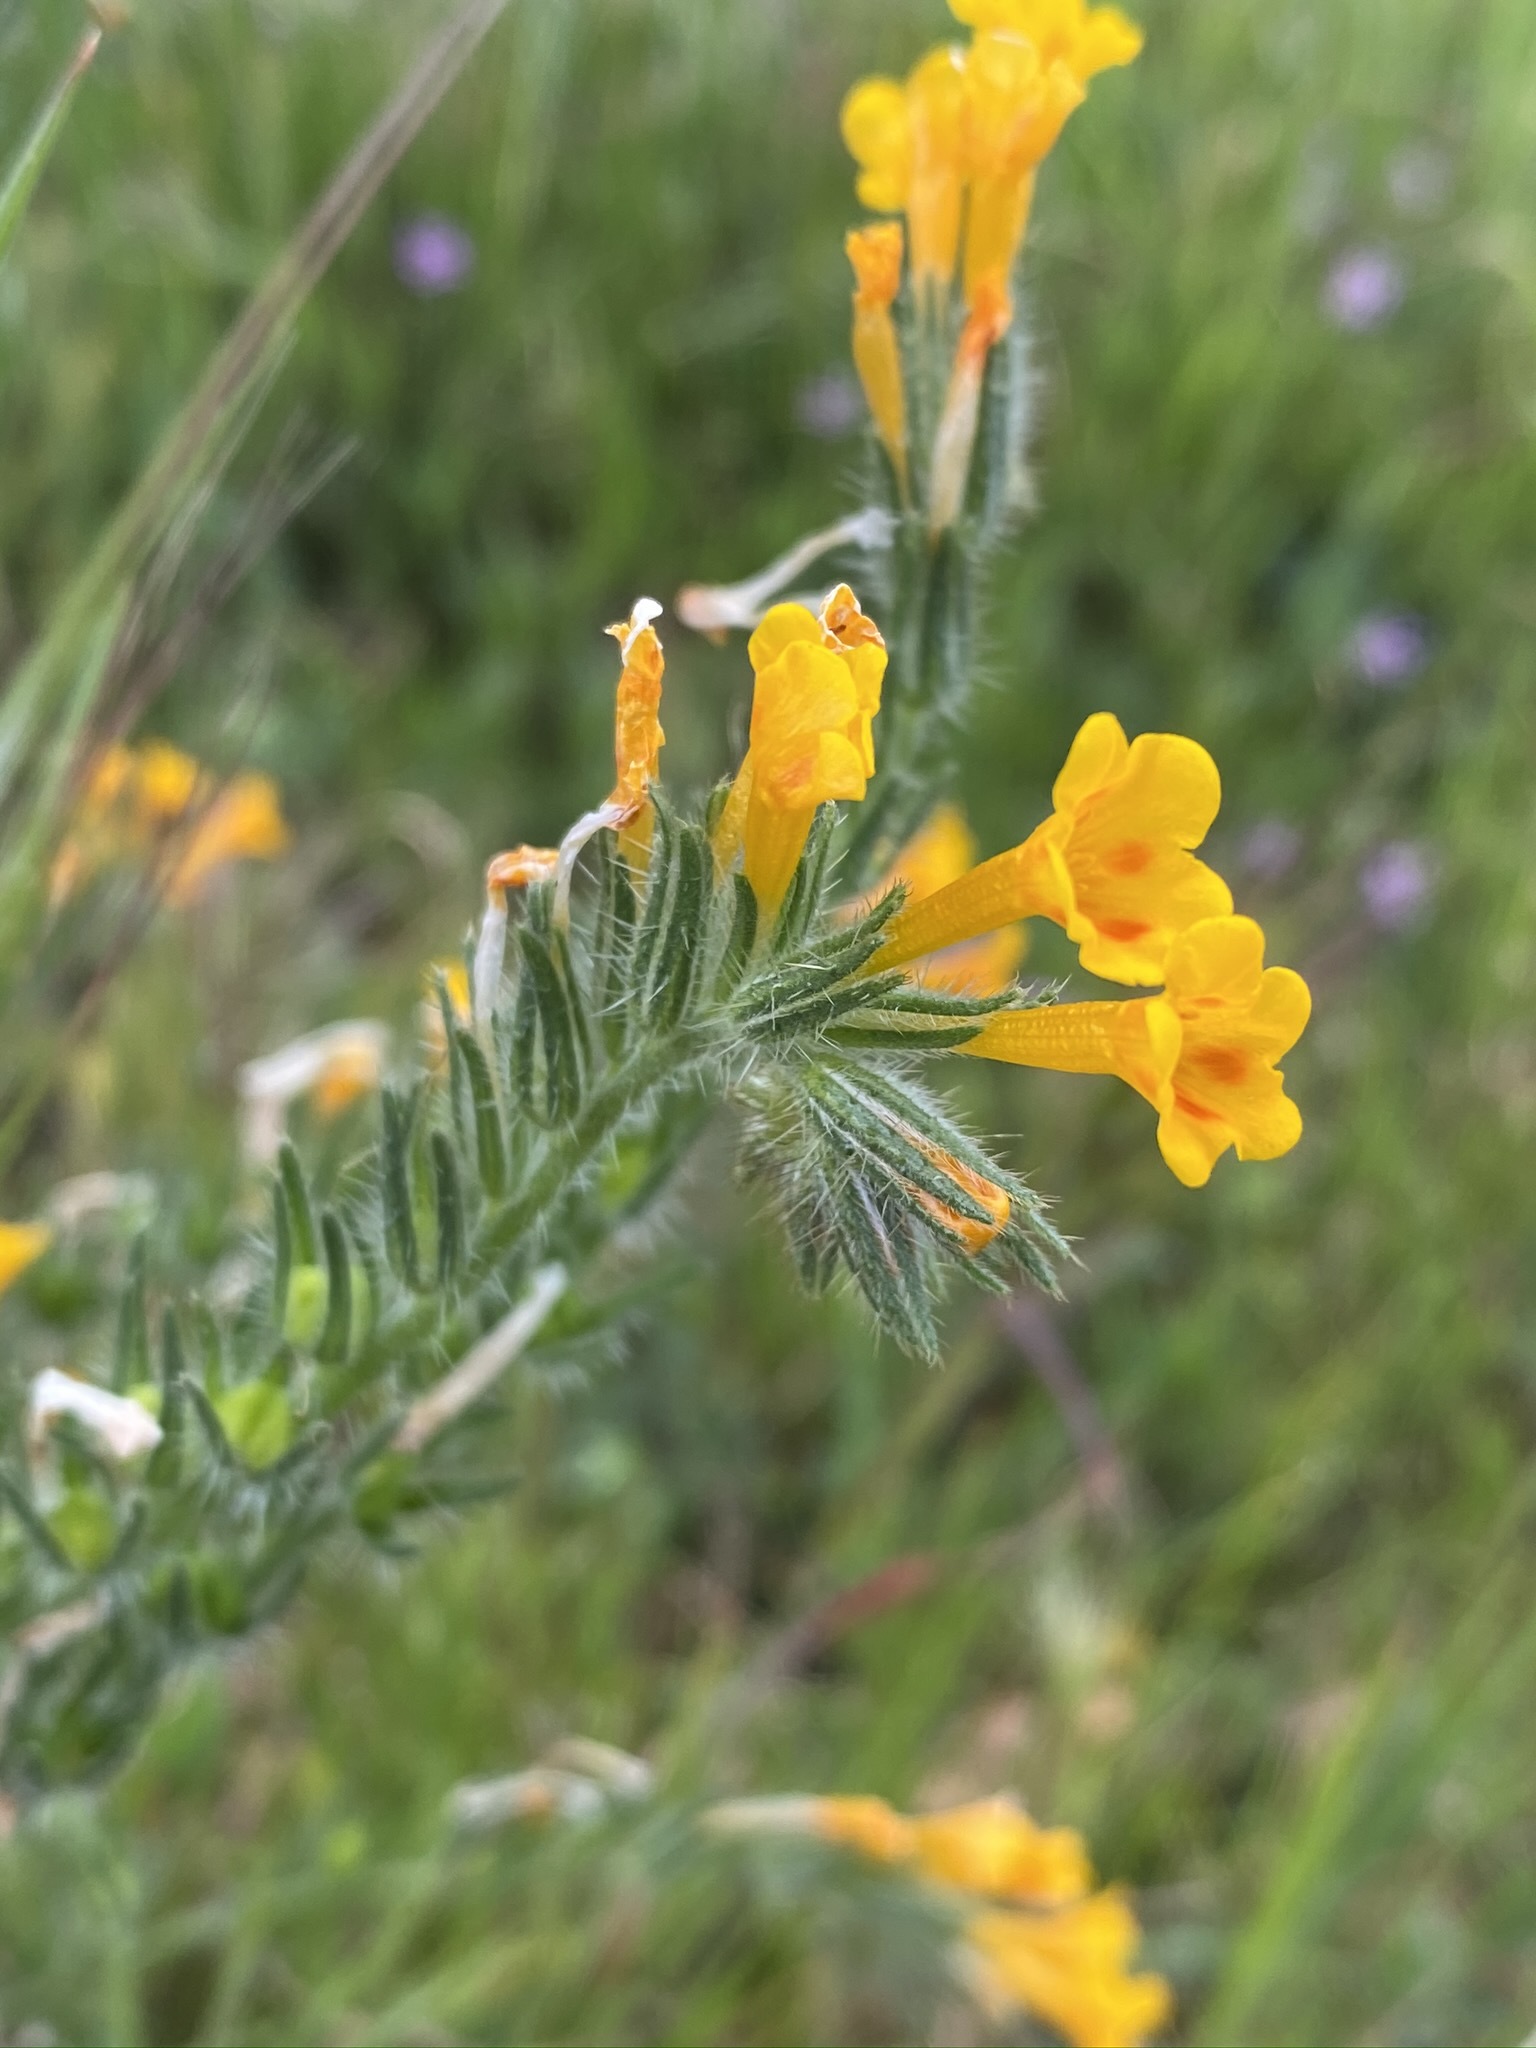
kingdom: Plantae
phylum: Tracheophyta
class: Magnoliopsida
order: Boraginales
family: Boraginaceae
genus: Amsinckia
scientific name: Amsinckia eastwoodiae
